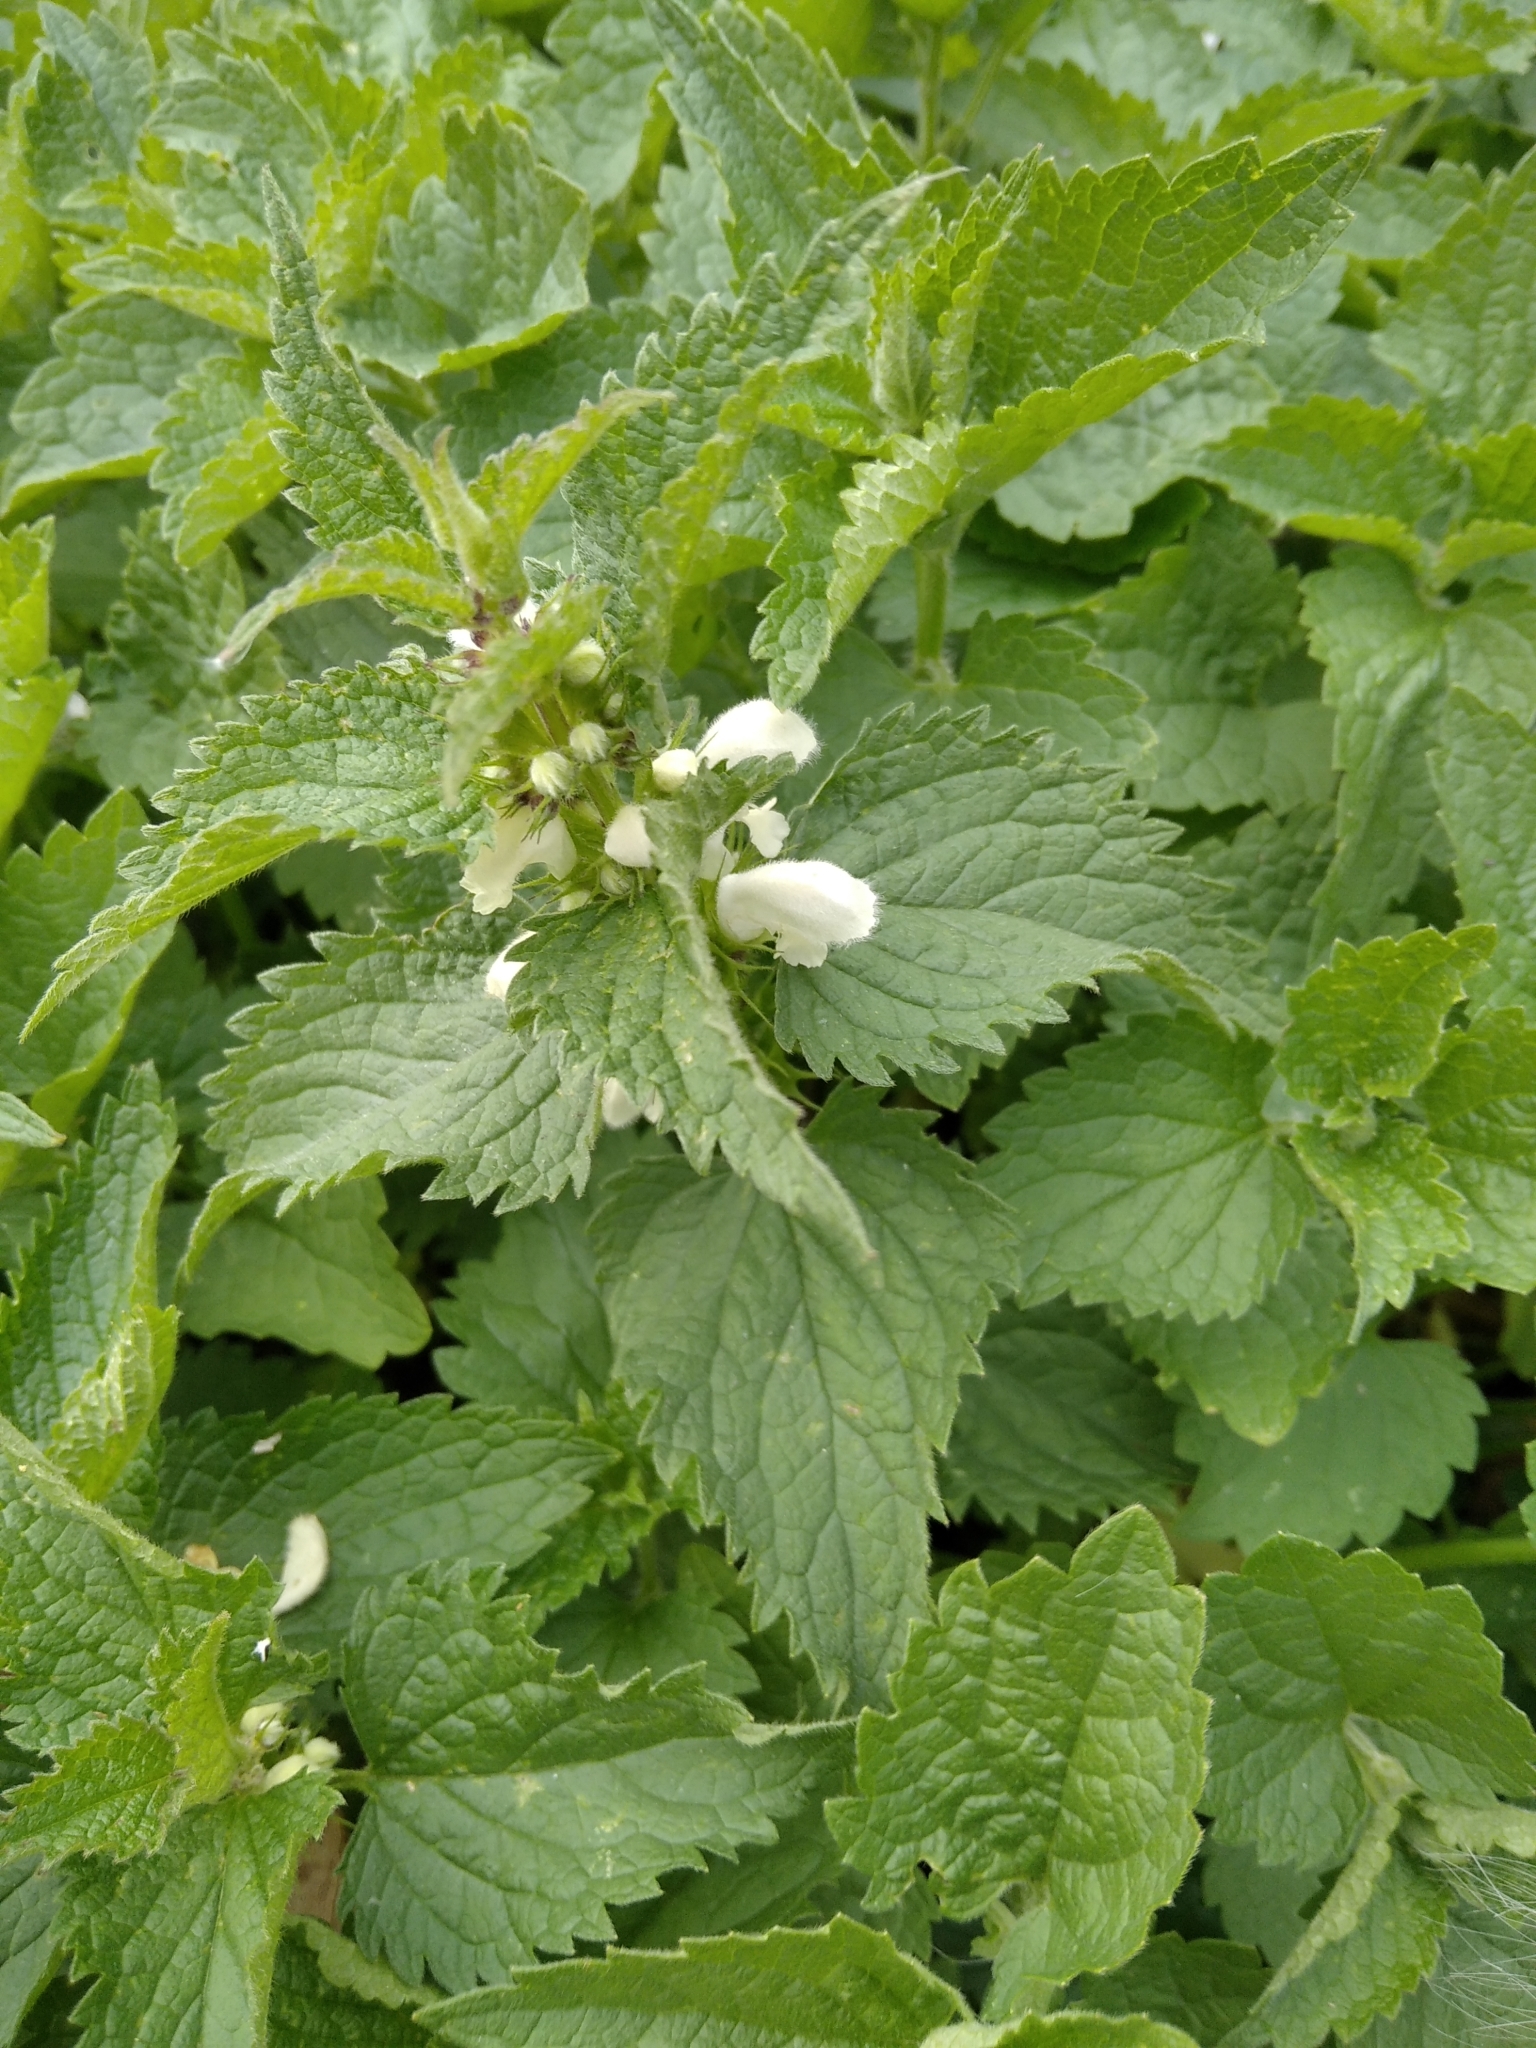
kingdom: Plantae
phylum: Tracheophyta
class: Magnoliopsida
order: Lamiales
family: Lamiaceae
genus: Lamium
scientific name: Lamium album
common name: White dead-nettle
